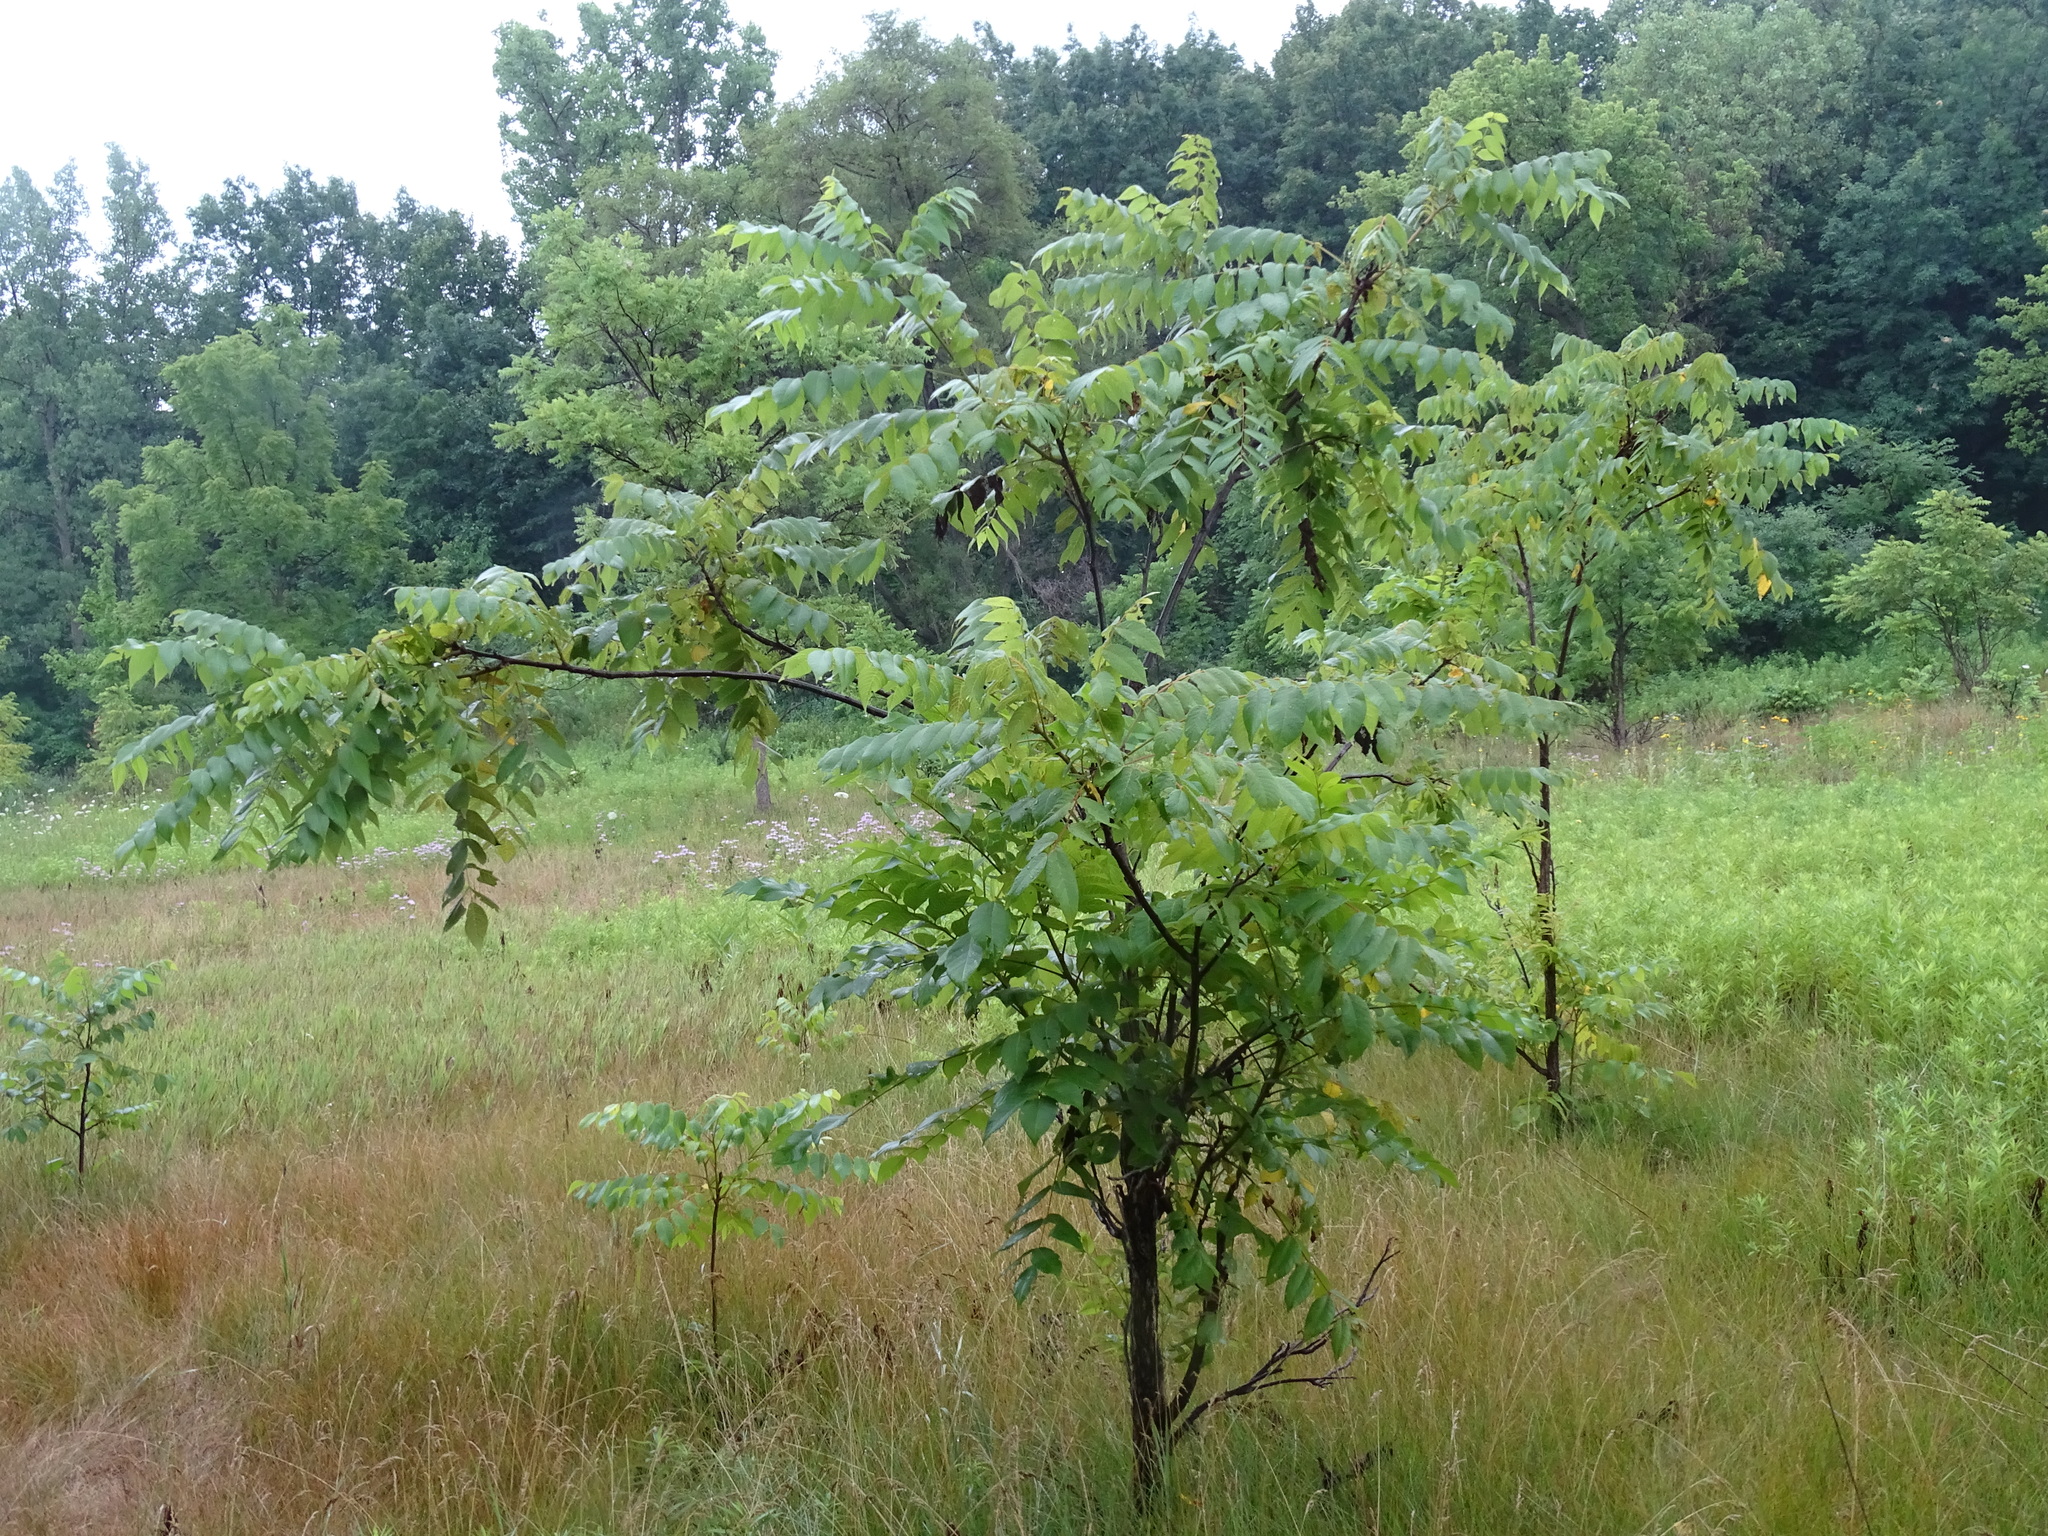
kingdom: Plantae
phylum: Tracheophyta
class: Magnoliopsida
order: Fagales
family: Juglandaceae
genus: Juglans
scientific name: Juglans nigra
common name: Black walnut
